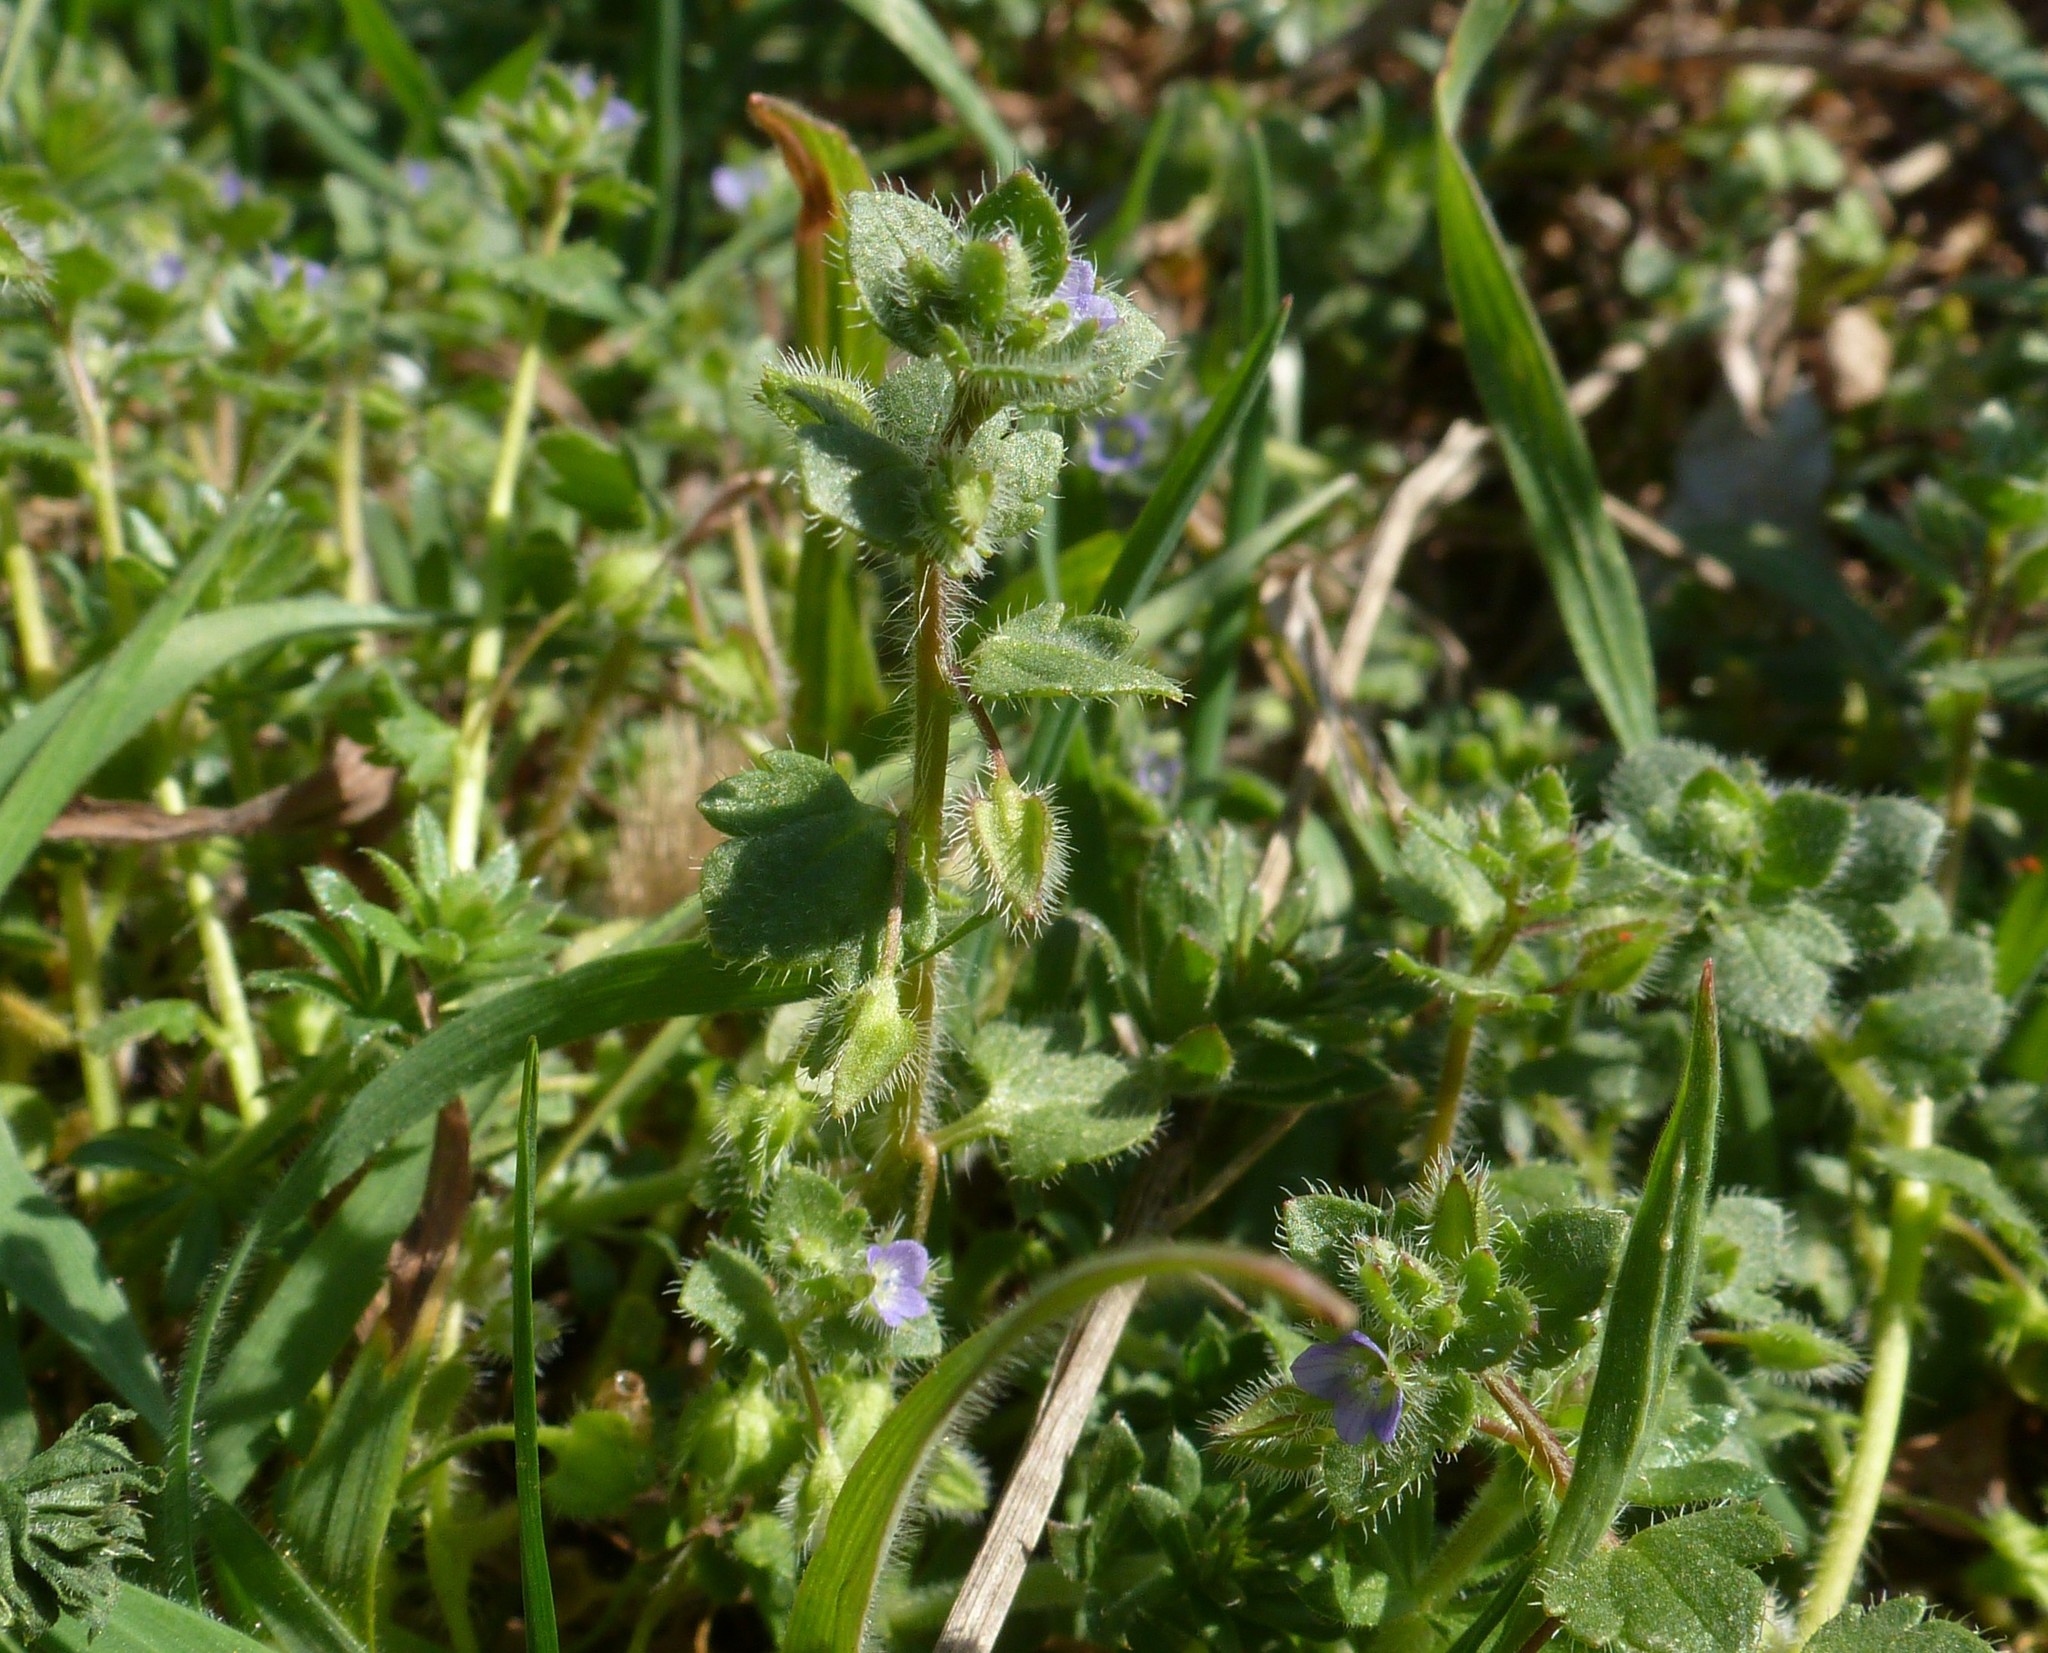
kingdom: Plantae
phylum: Tracheophyta
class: Magnoliopsida
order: Lamiales
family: Plantaginaceae
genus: Veronica
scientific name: Veronica hederifolia
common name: Ivy-leaved speedwell
